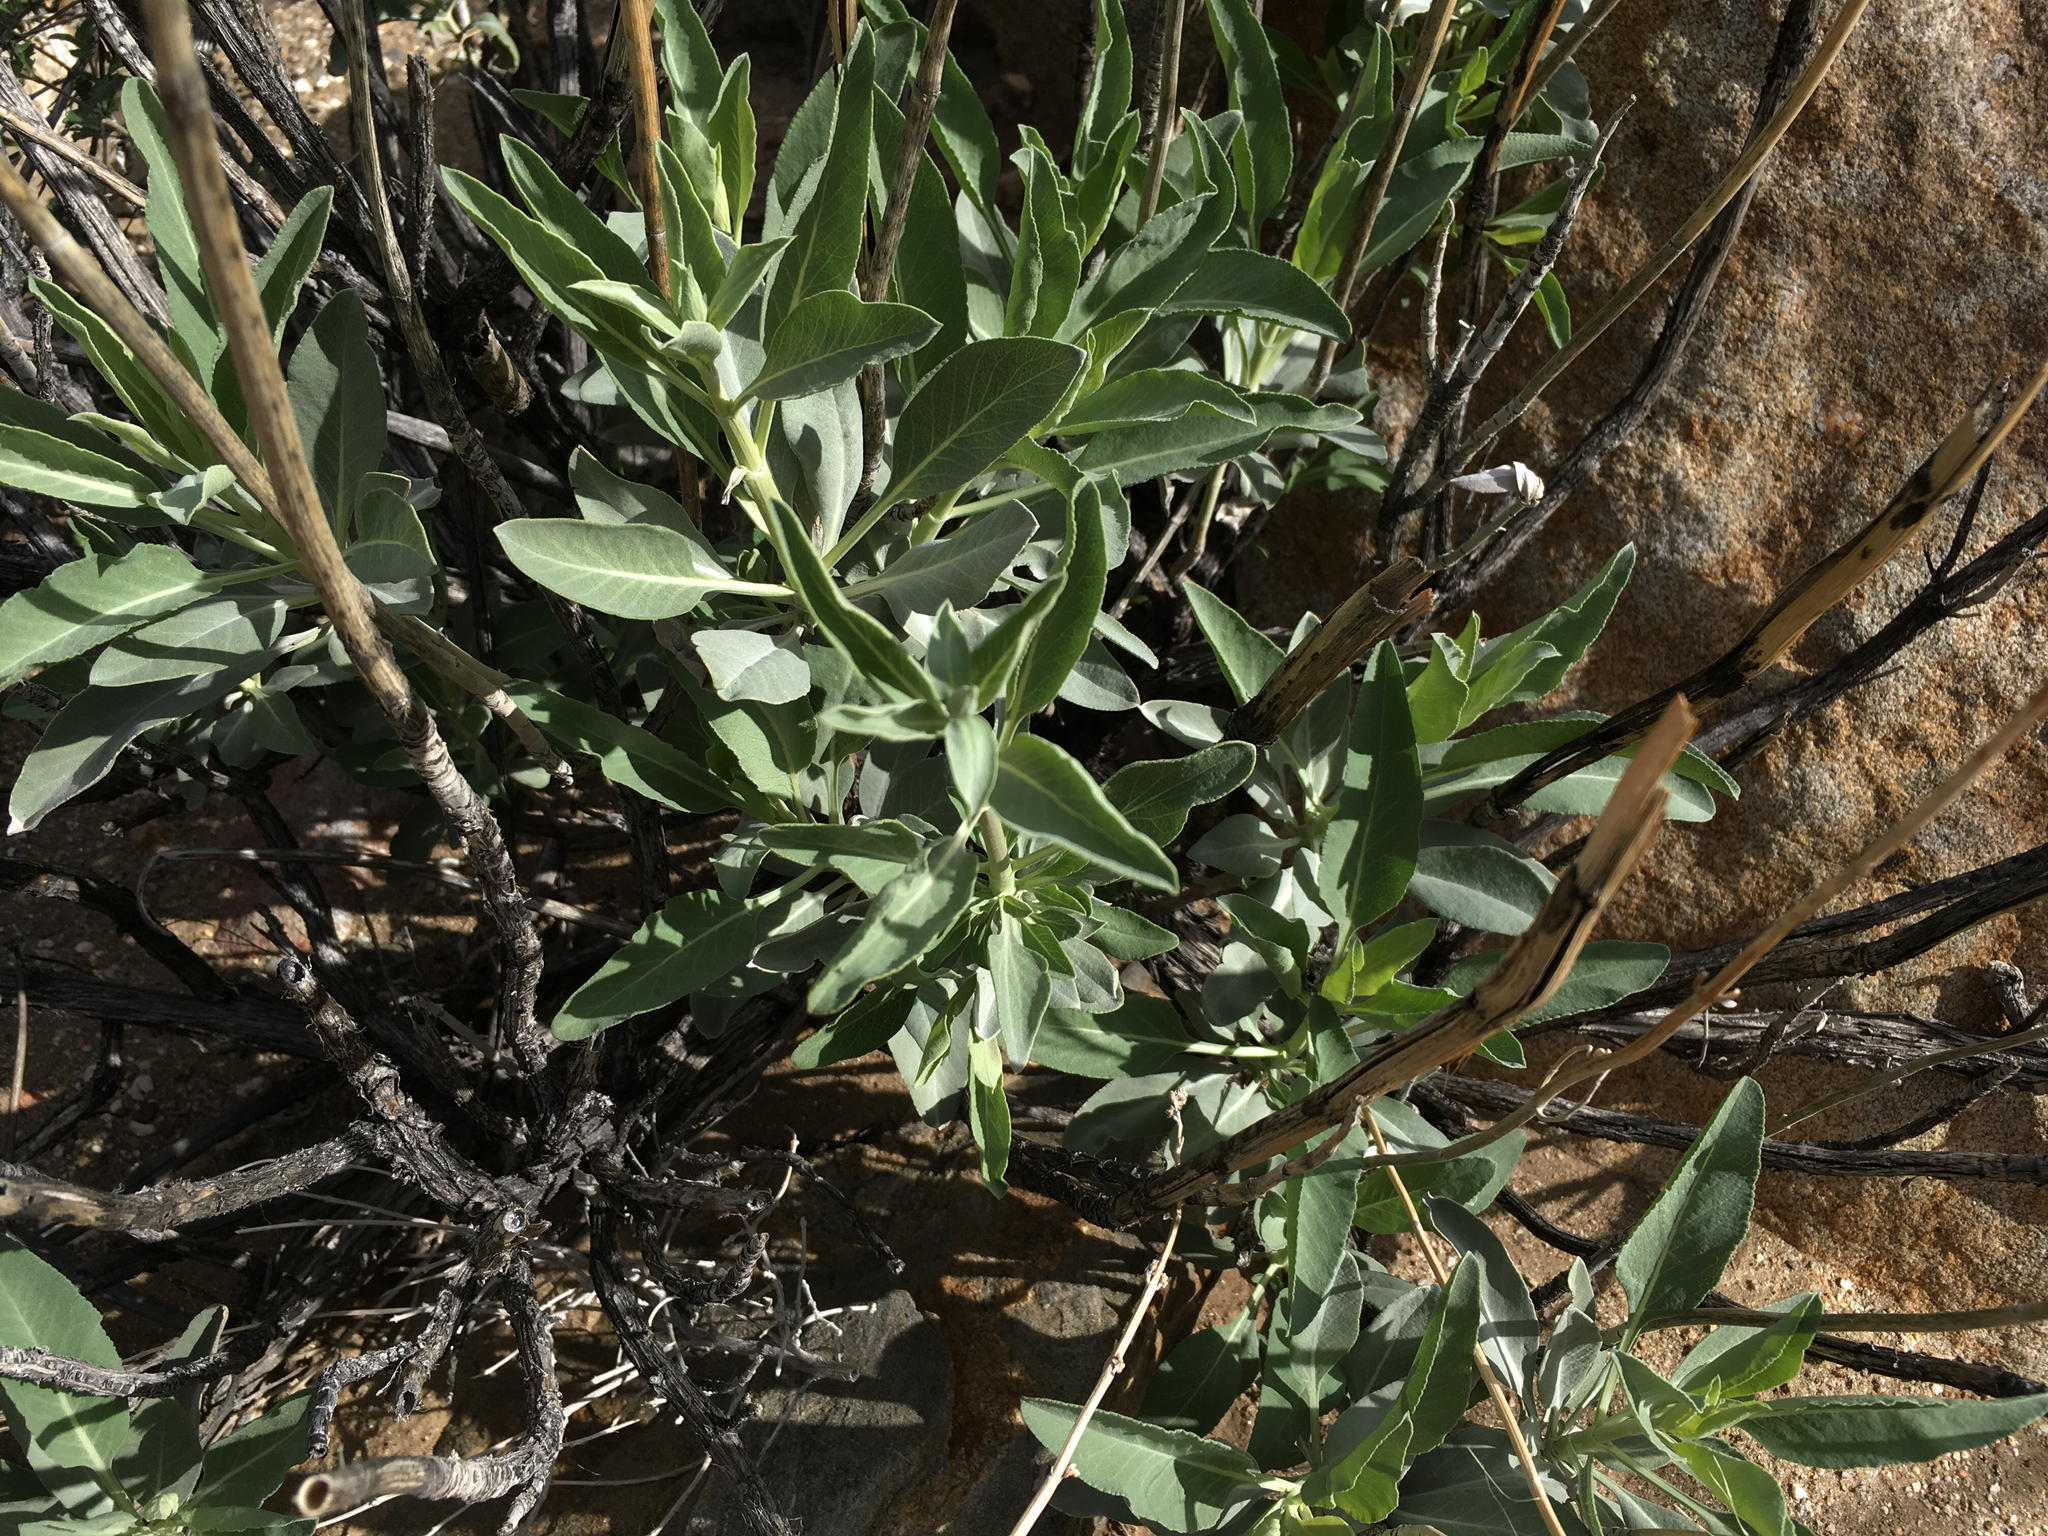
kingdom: Plantae
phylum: Tracheophyta
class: Magnoliopsida
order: Lamiales
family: Lamiaceae
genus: Salvia
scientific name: Salvia apiana
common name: White sage
